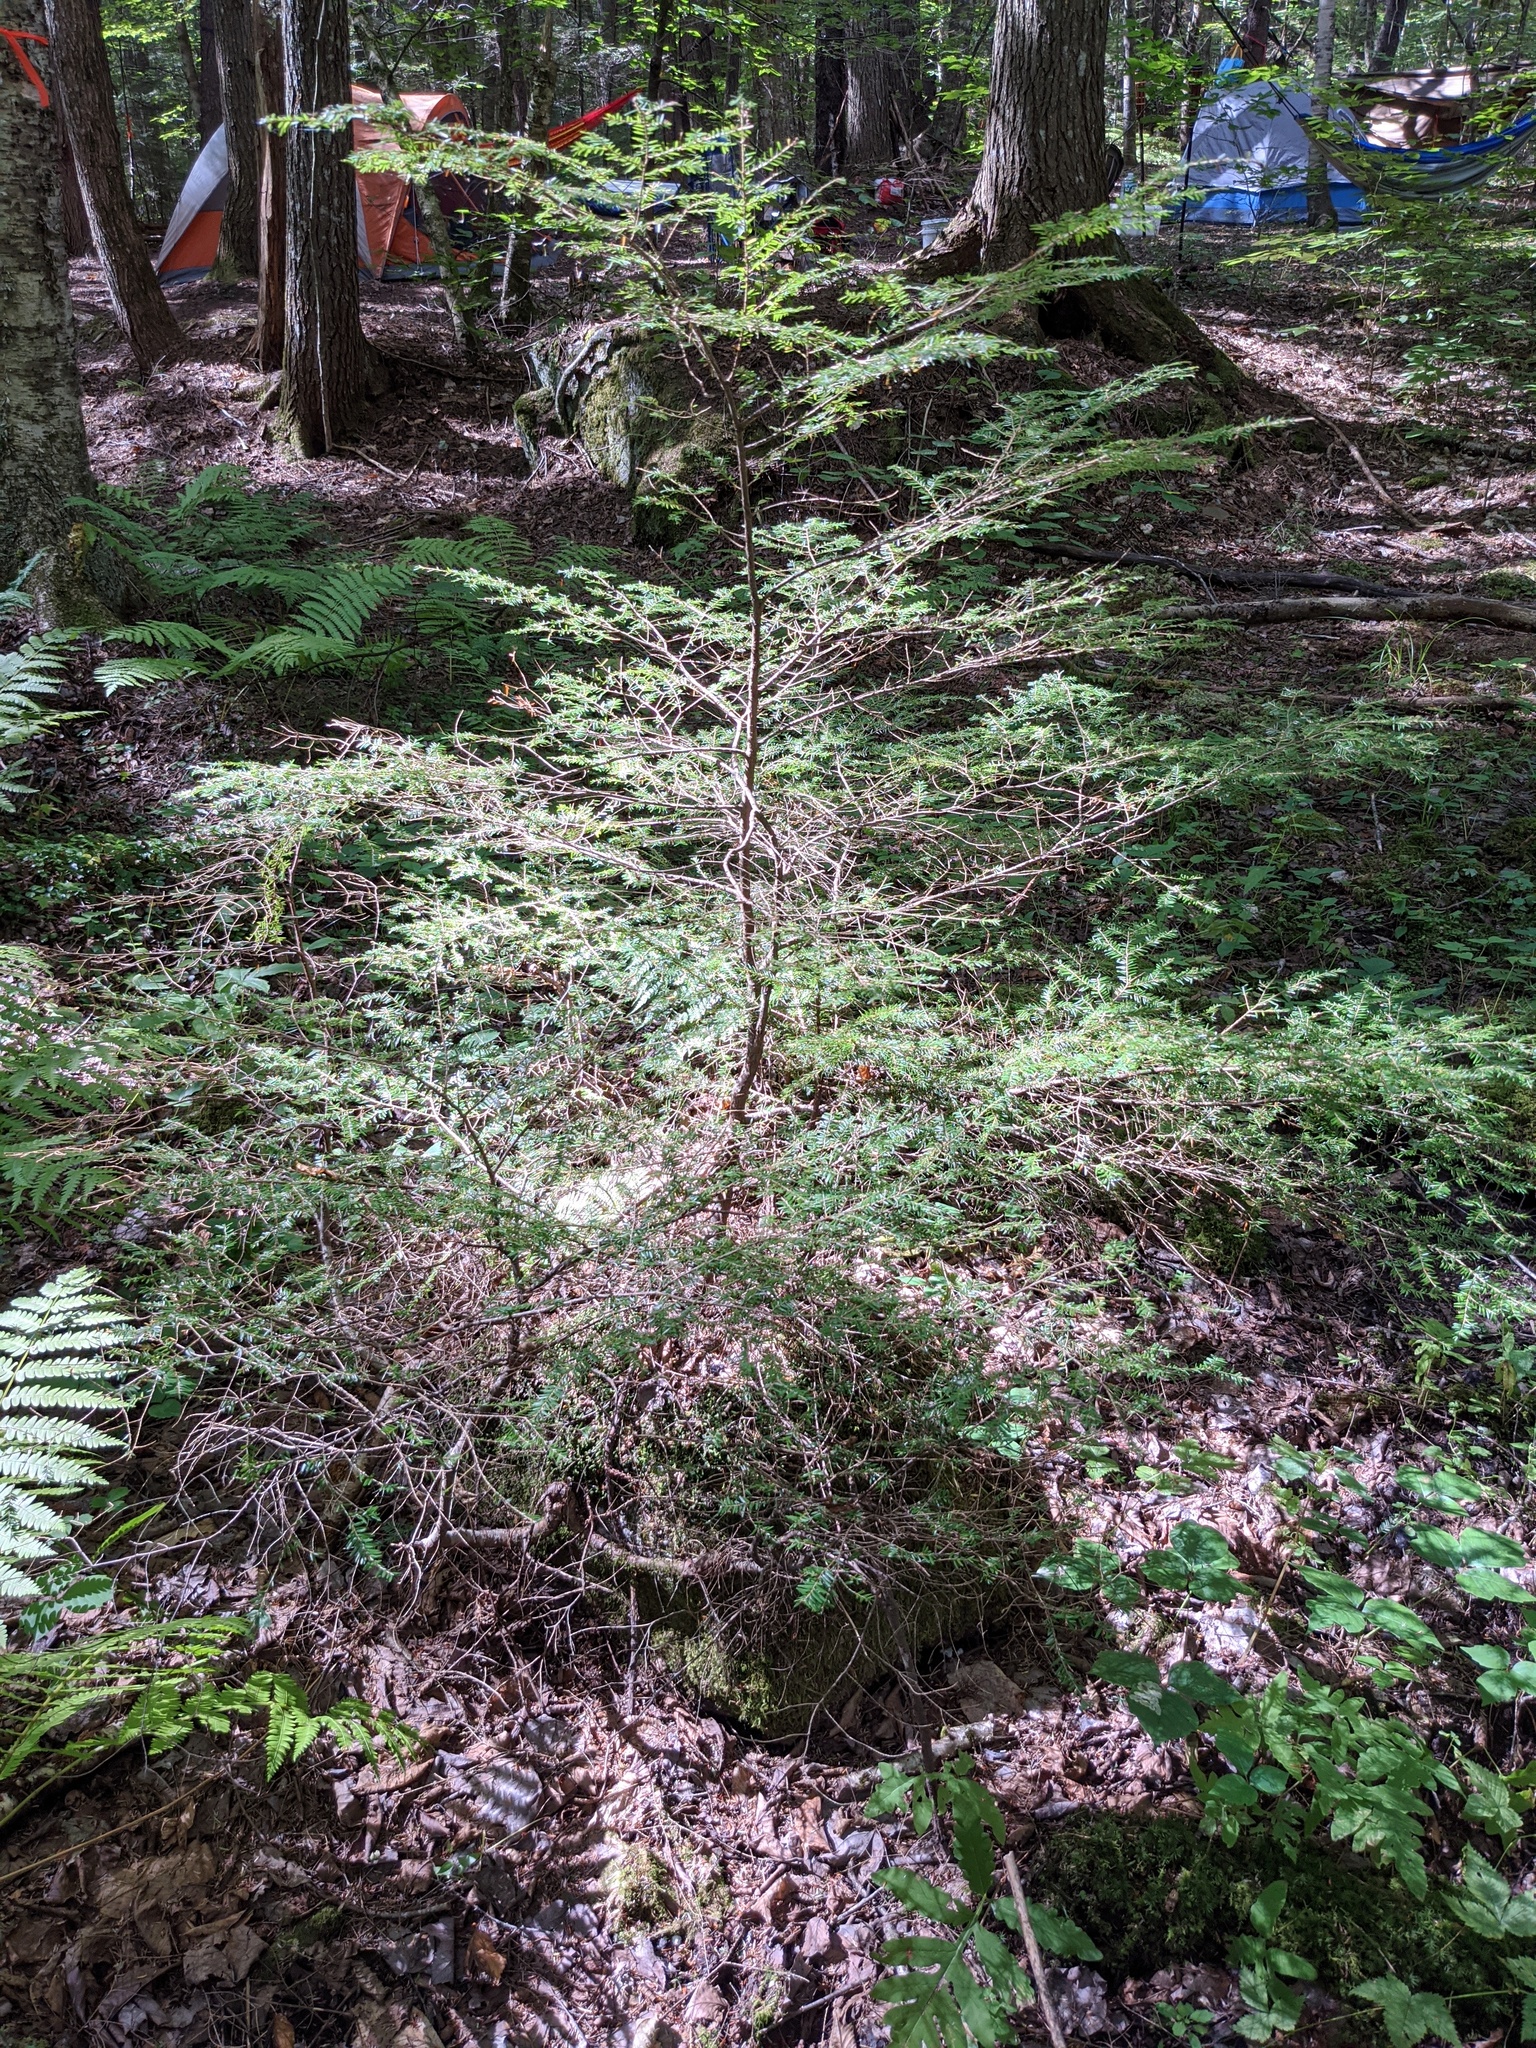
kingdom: Plantae
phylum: Tracheophyta
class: Pinopsida
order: Pinales
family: Pinaceae
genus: Tsuga
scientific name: Tsuga canadensis
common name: Eastern hemlock
